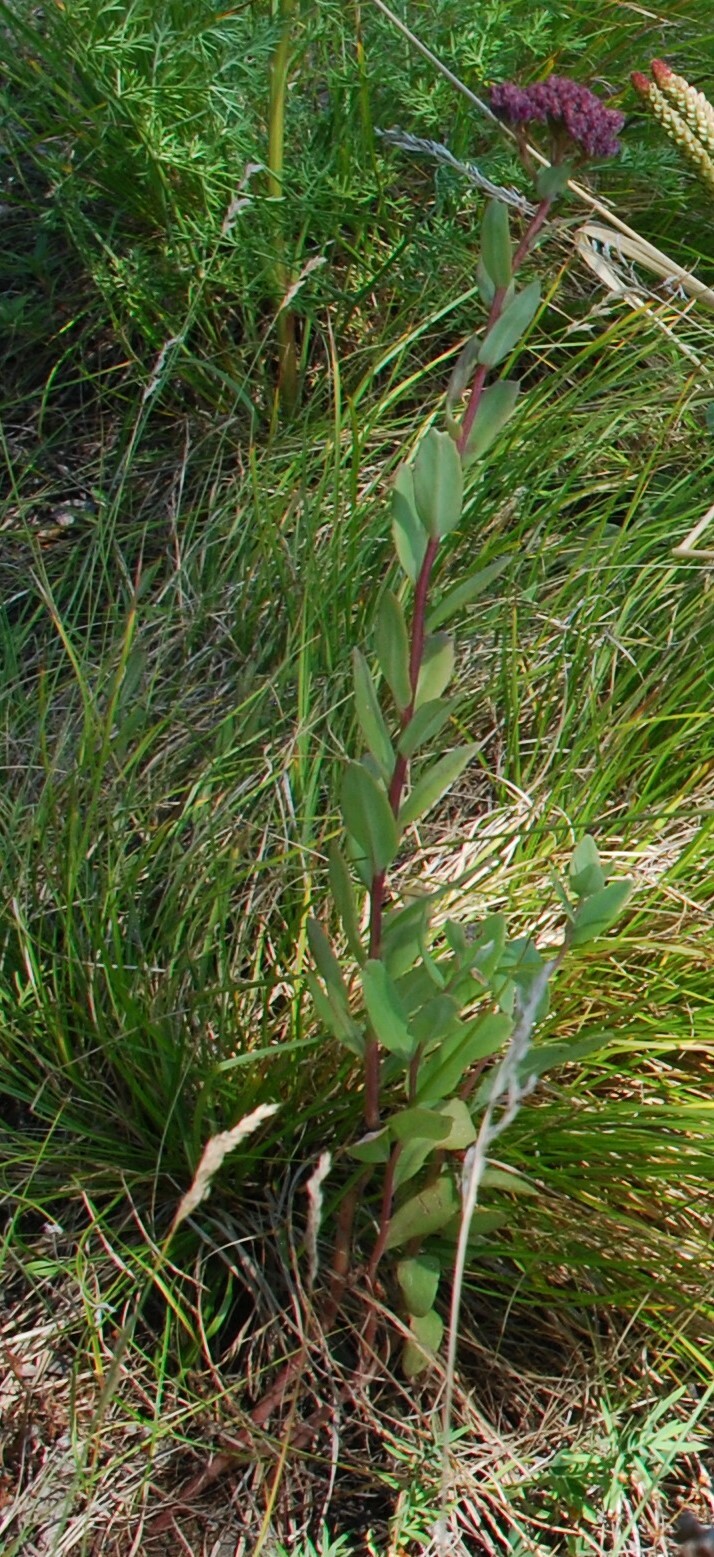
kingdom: Plantae
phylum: Tracheophyta
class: Magnoliopsida
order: Saxifragales
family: Crassulaceae
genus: Hylotelephium
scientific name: Hylotelephium telephium
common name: Live-forever
